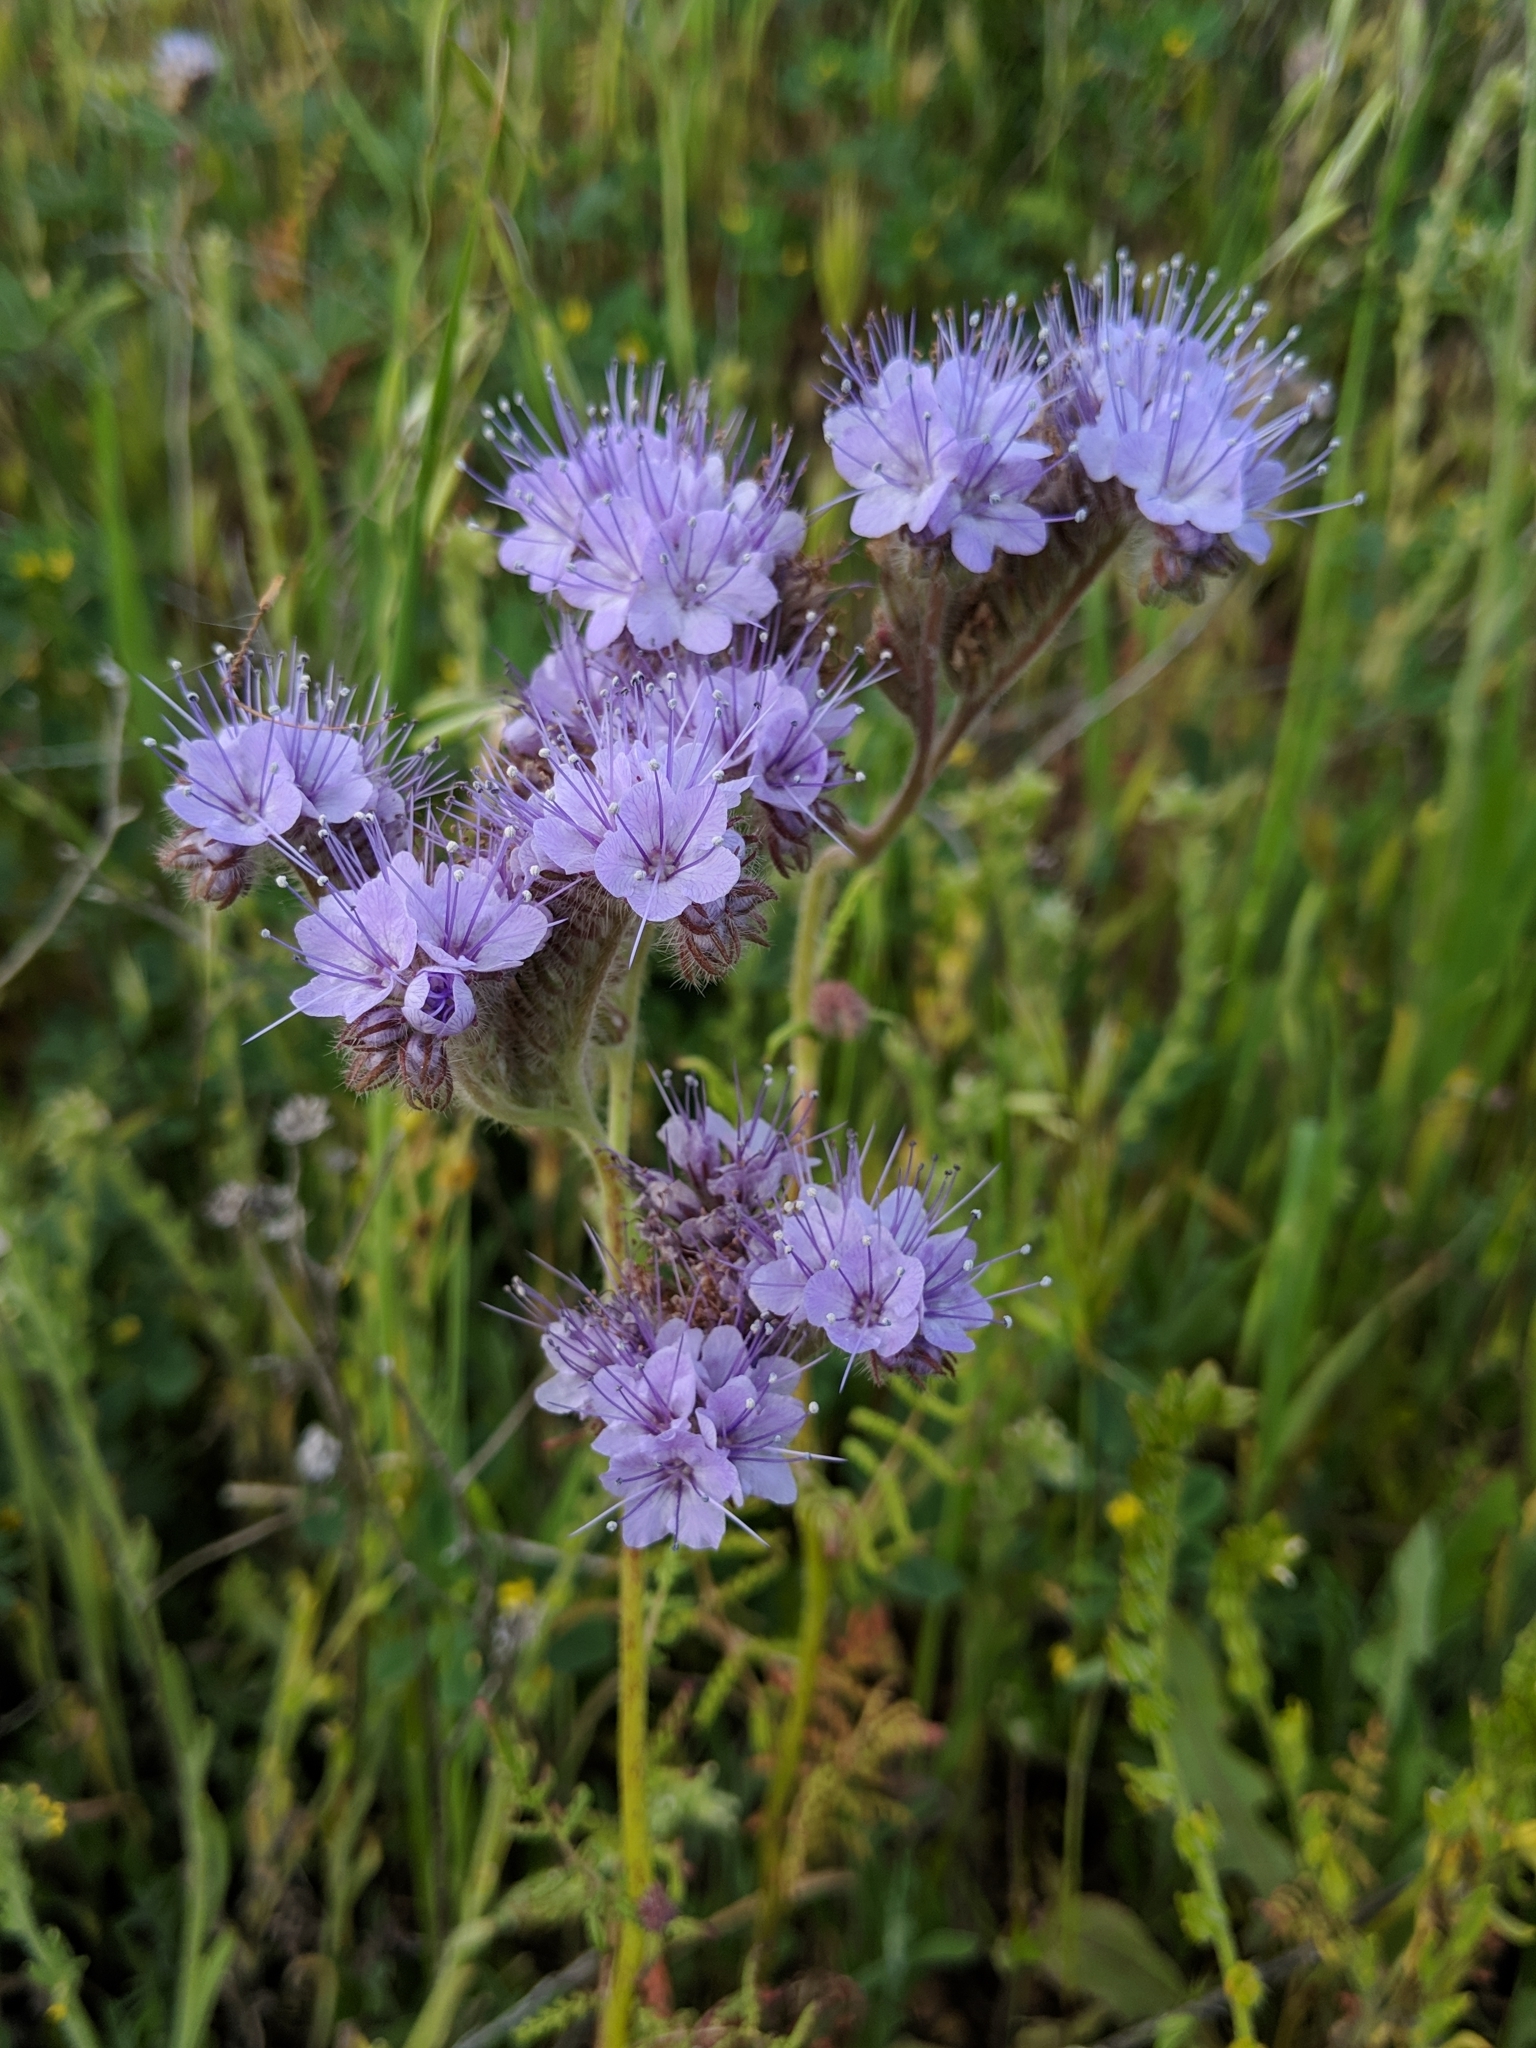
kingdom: Plantae
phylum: Tracheophyta
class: Magnoliopsida
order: Boraginales
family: Hydrophyllaceae
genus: Phacelia
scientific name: Phacelia tanacetifolia
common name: Phacelia
